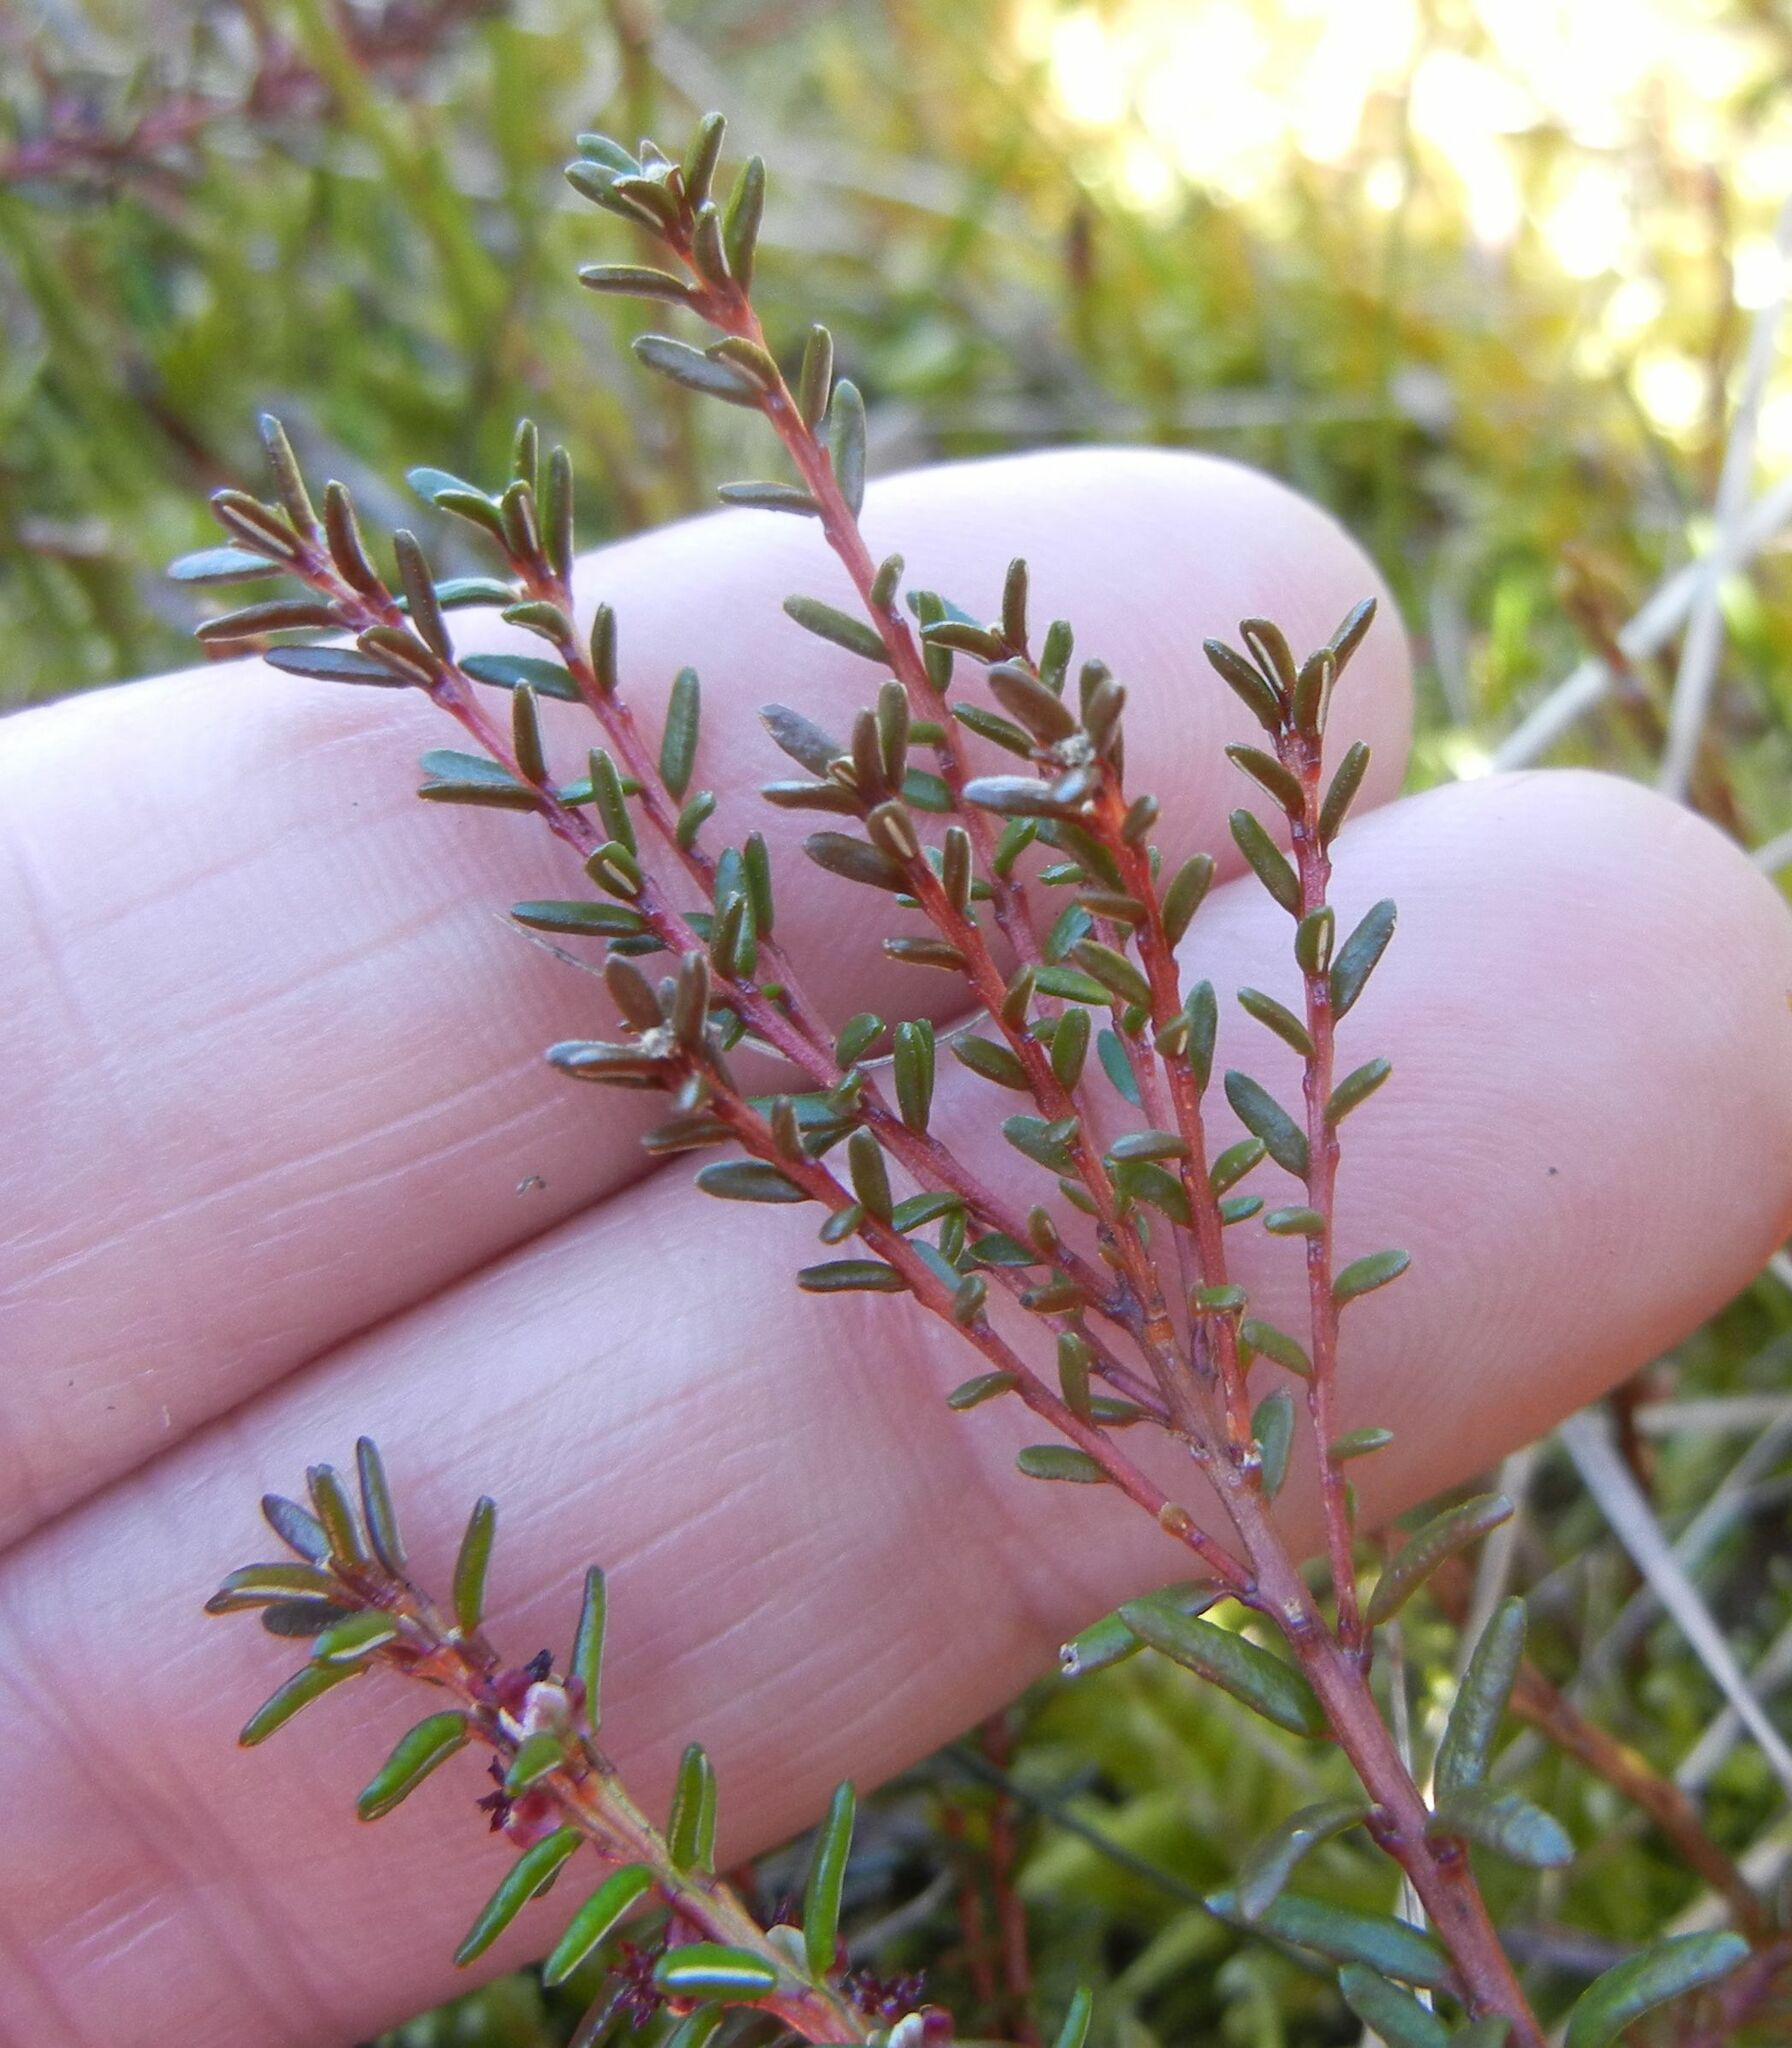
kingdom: Plantae
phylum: Tracheophyta
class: Magnoliopsida
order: Ericales
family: Ericaceae
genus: Empetrum
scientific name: Empetrum nigrum
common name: Black crowberry
